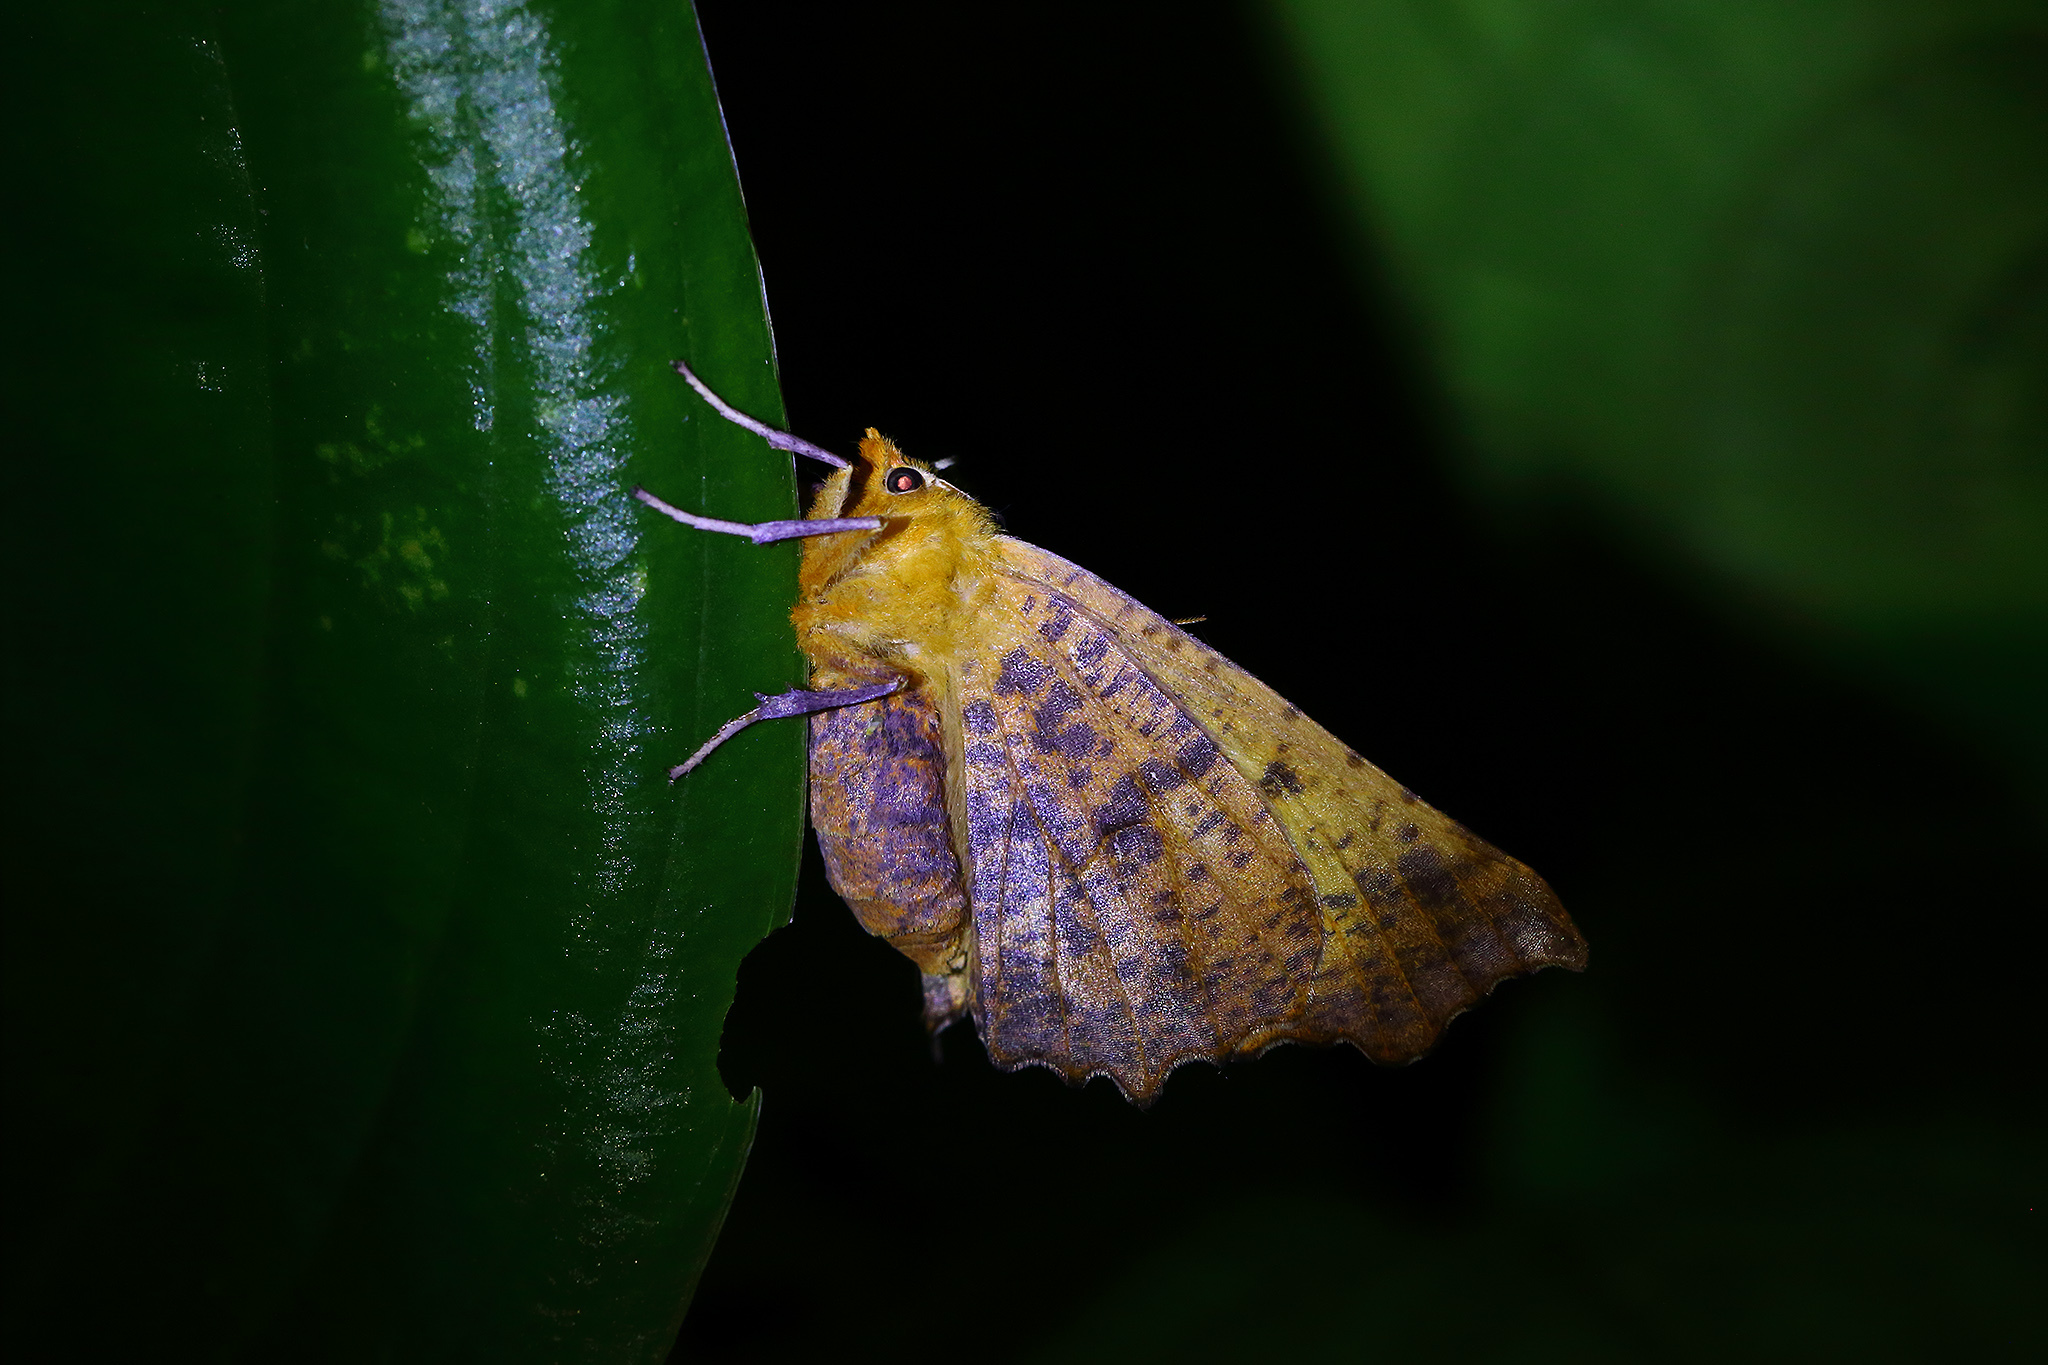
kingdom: Animalia
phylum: Arthropoda
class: Insecta
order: Lepidoptera
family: Geometridae
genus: Ennomos
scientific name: Ennomos alniaria
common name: Canary-shouldered thorn
